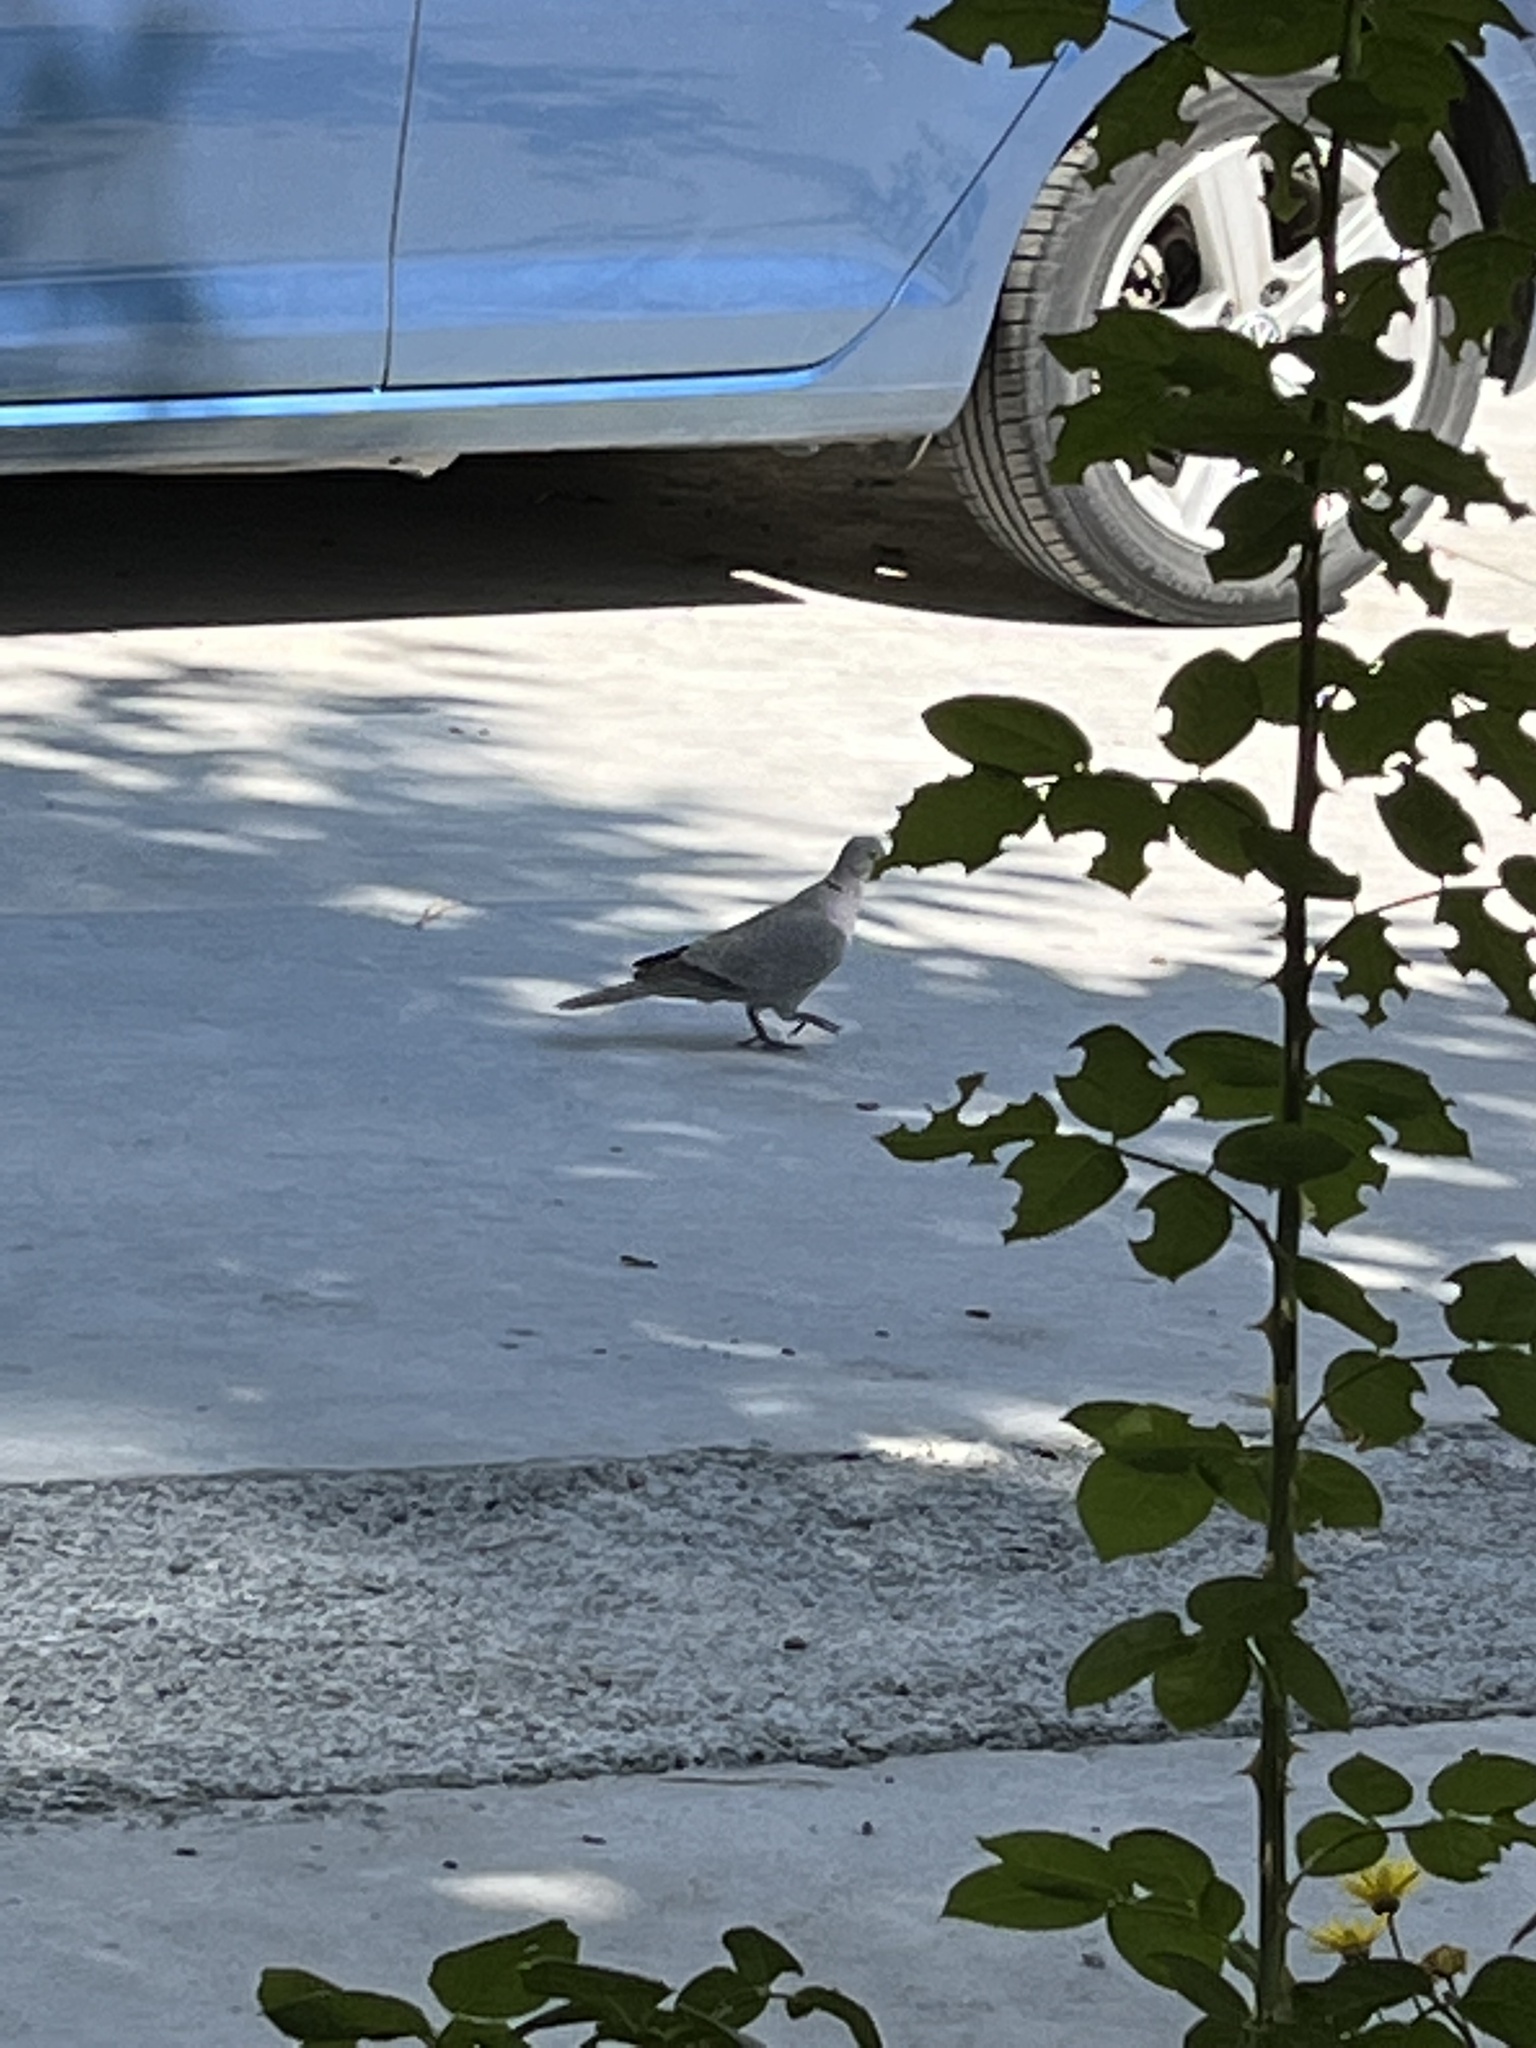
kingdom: Animalia
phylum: Chordata
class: Aves
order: Columbiformes
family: Columbidae
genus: Streptopelia
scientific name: Streptopelia decaocto
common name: Eurasian collared dove
